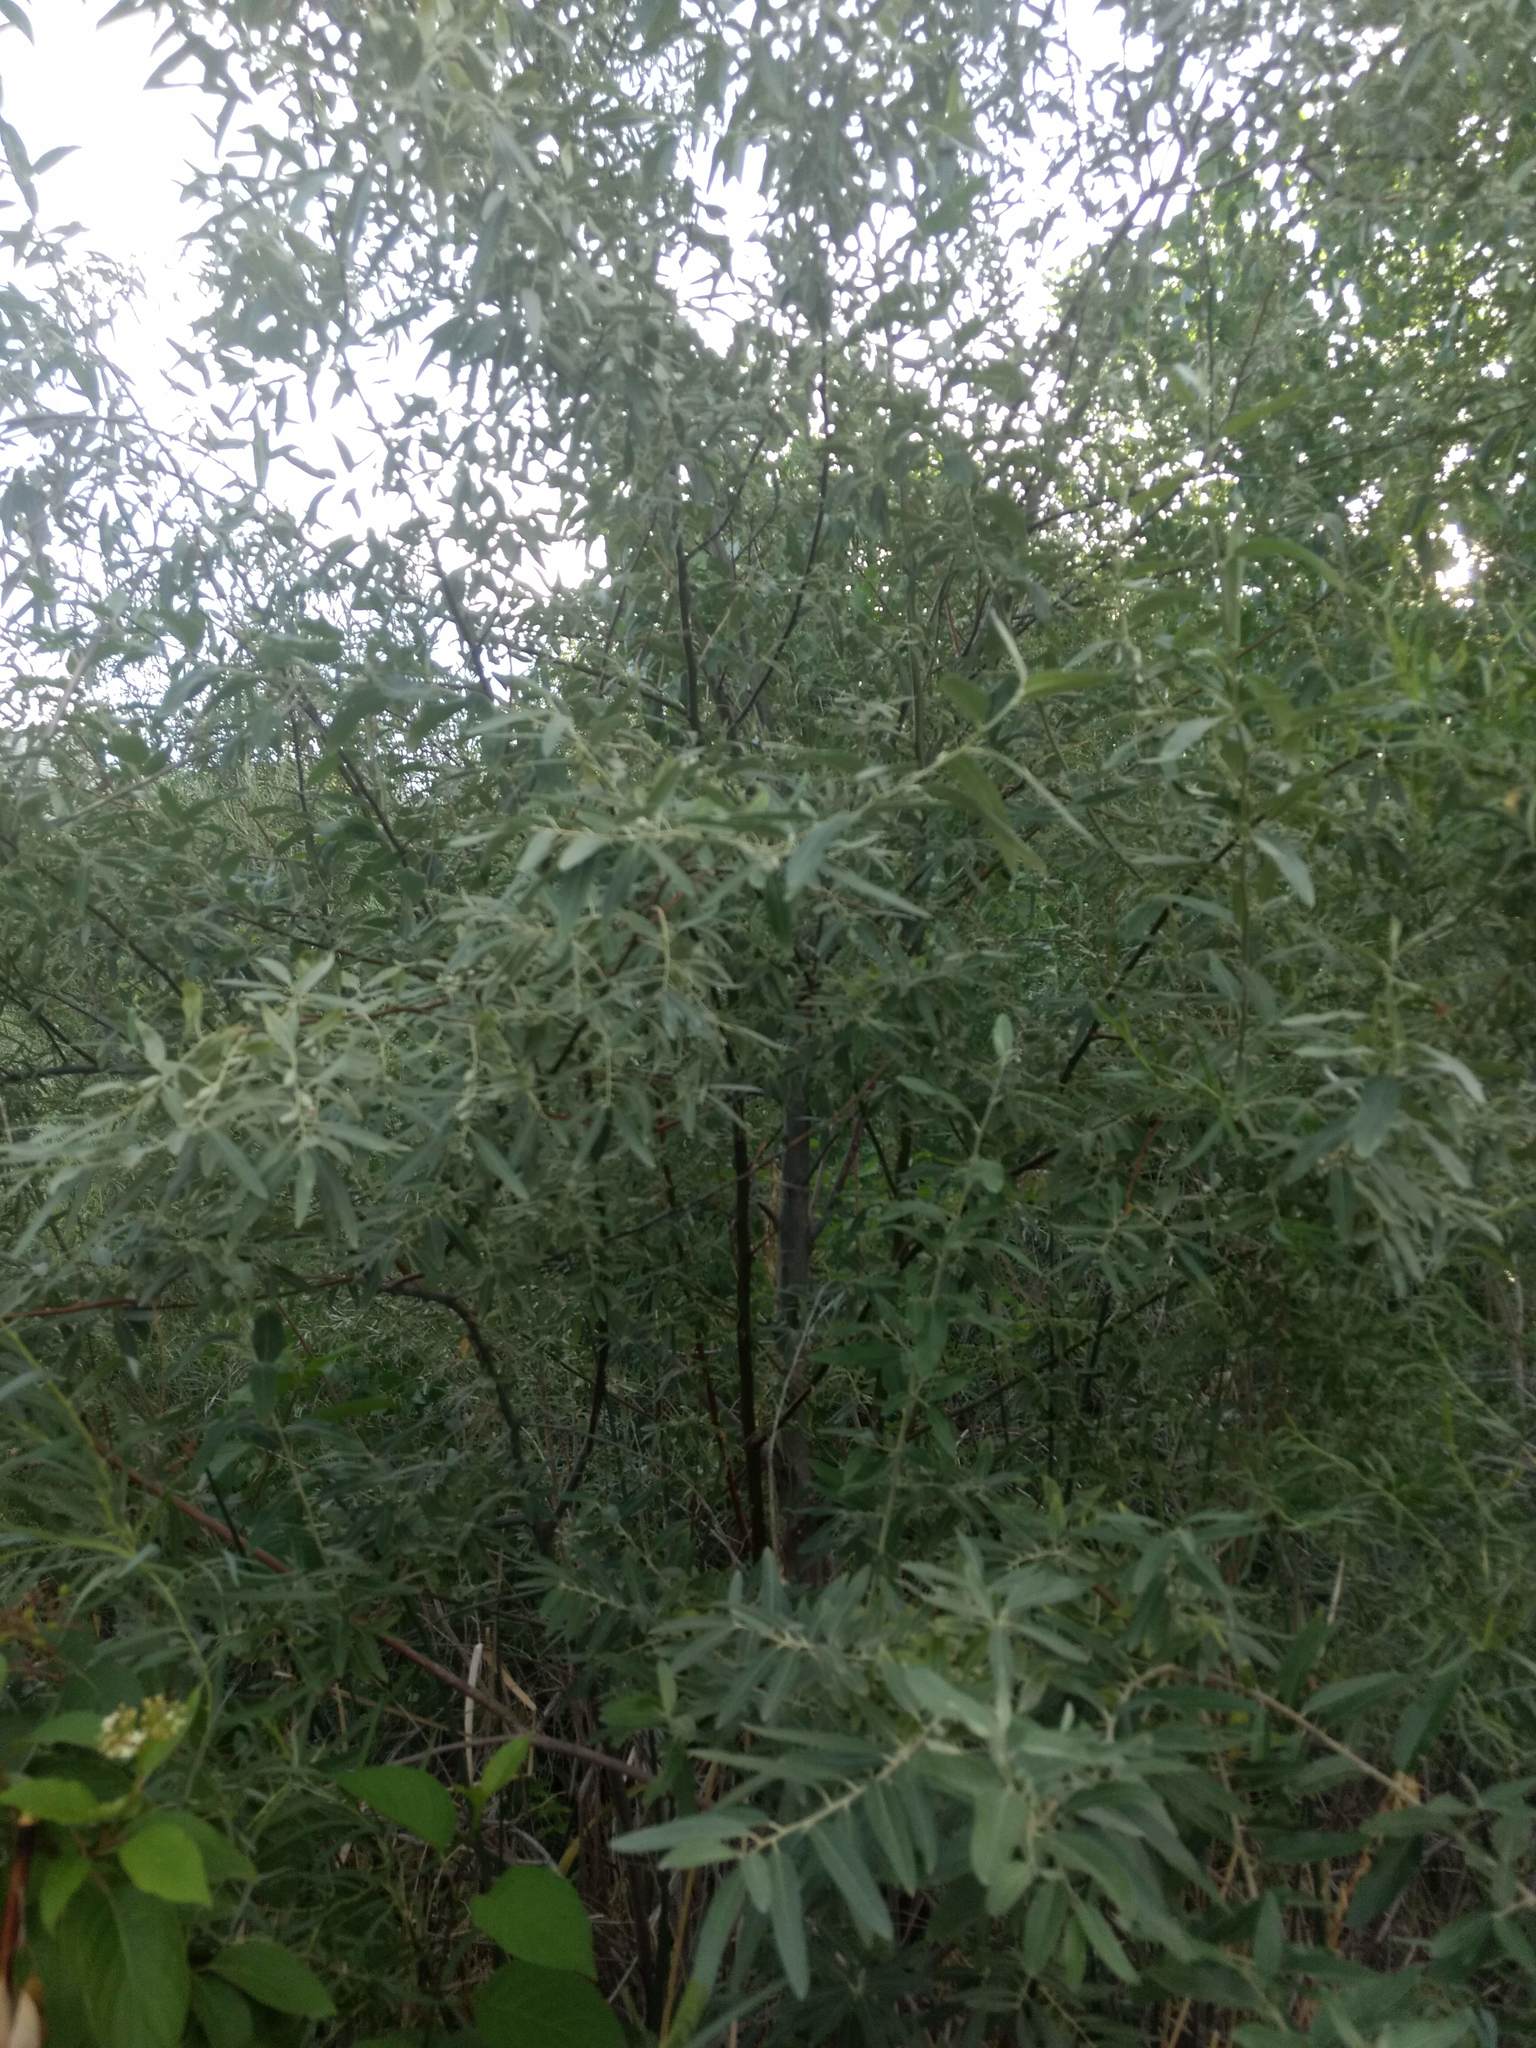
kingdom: Plantae
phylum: Tracheophyta
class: Magnoliopsida
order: Rosales
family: Elaeagnaceae
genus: Elaeagnus
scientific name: Elaeagnus angustifolia
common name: Russian olive
